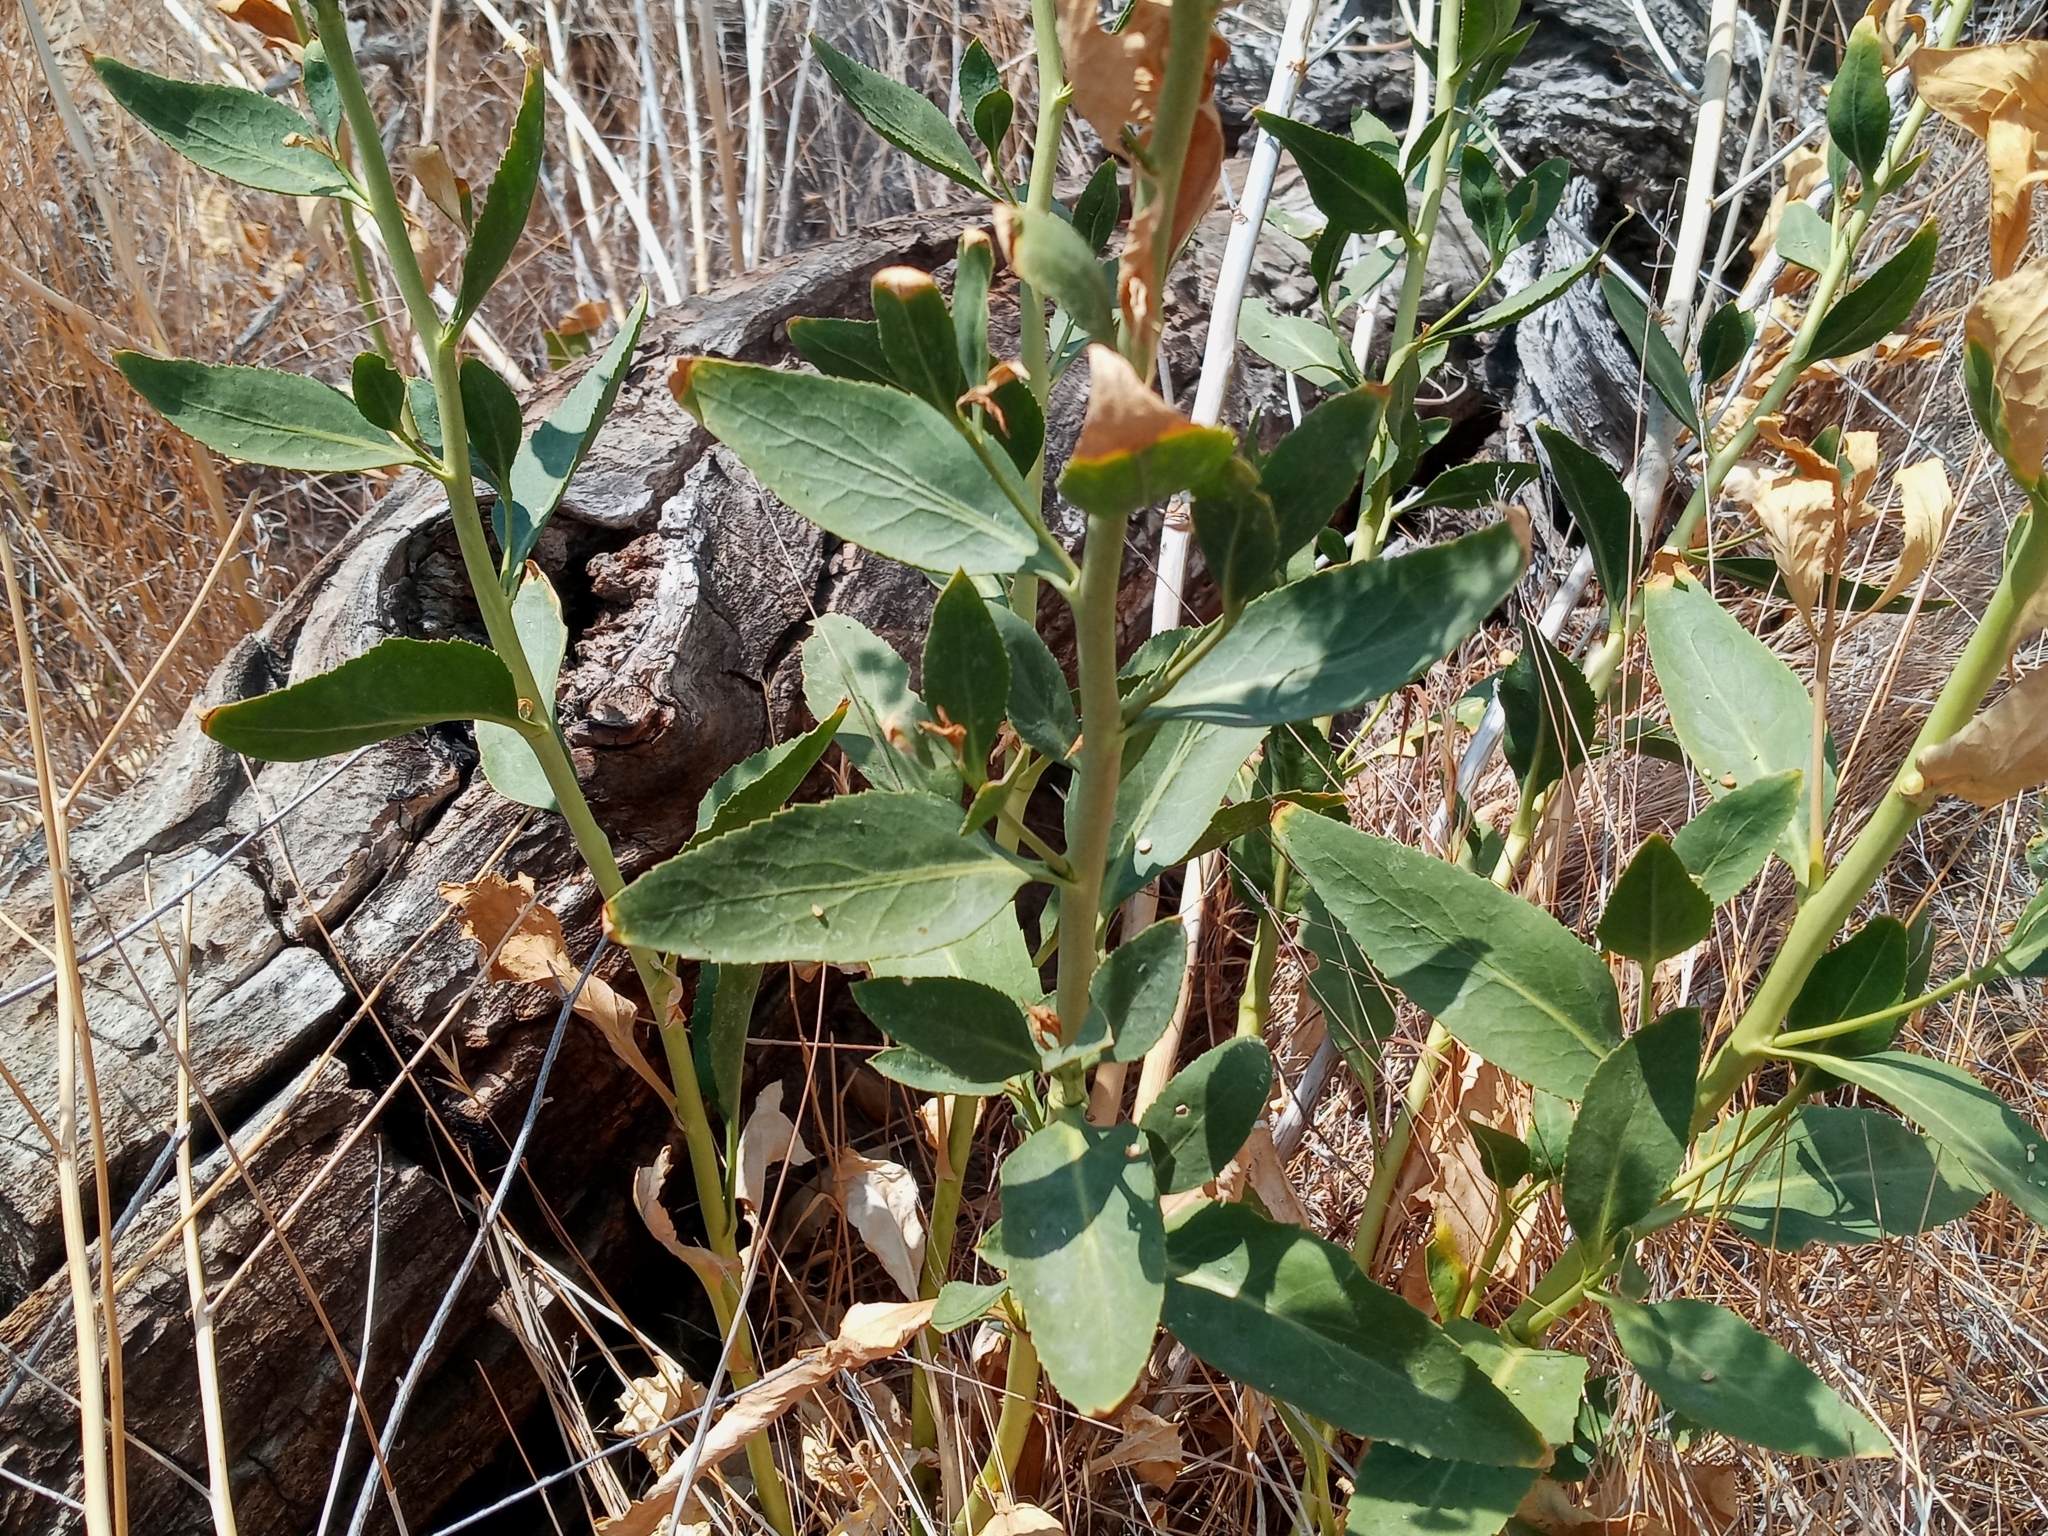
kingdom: Plantae
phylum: Tracheophyta
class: Magnoliopsida
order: Brassicales
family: Brassicaceae
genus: Lepidium
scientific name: Lepidium latifolium
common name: Dittander
